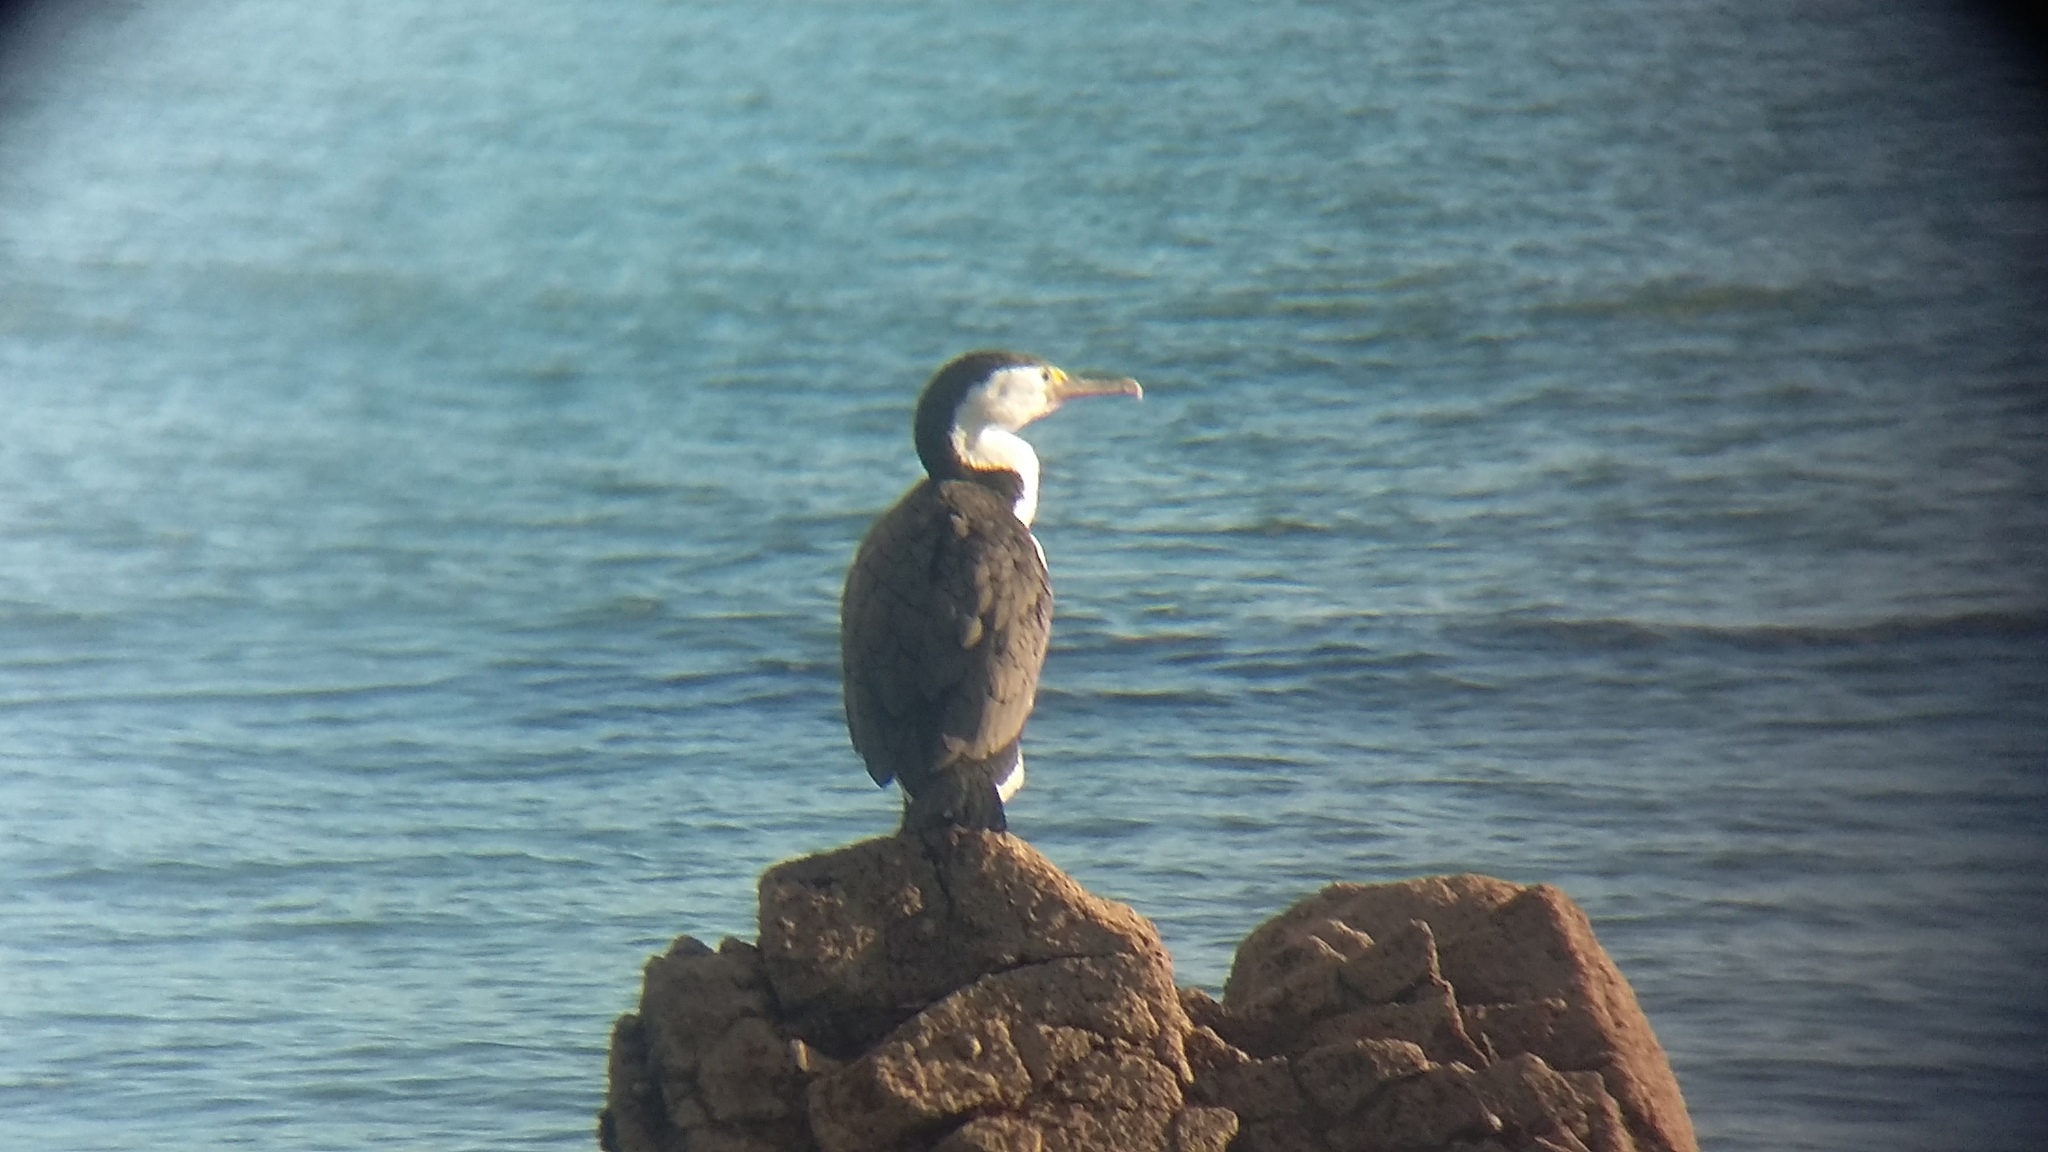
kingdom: Animalia
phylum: Chordata
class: Aves
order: Suliformes
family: Phalacrocoracidae
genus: Phalacrocorax
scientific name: Phalacrocorax varius
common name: Pied cormorant
